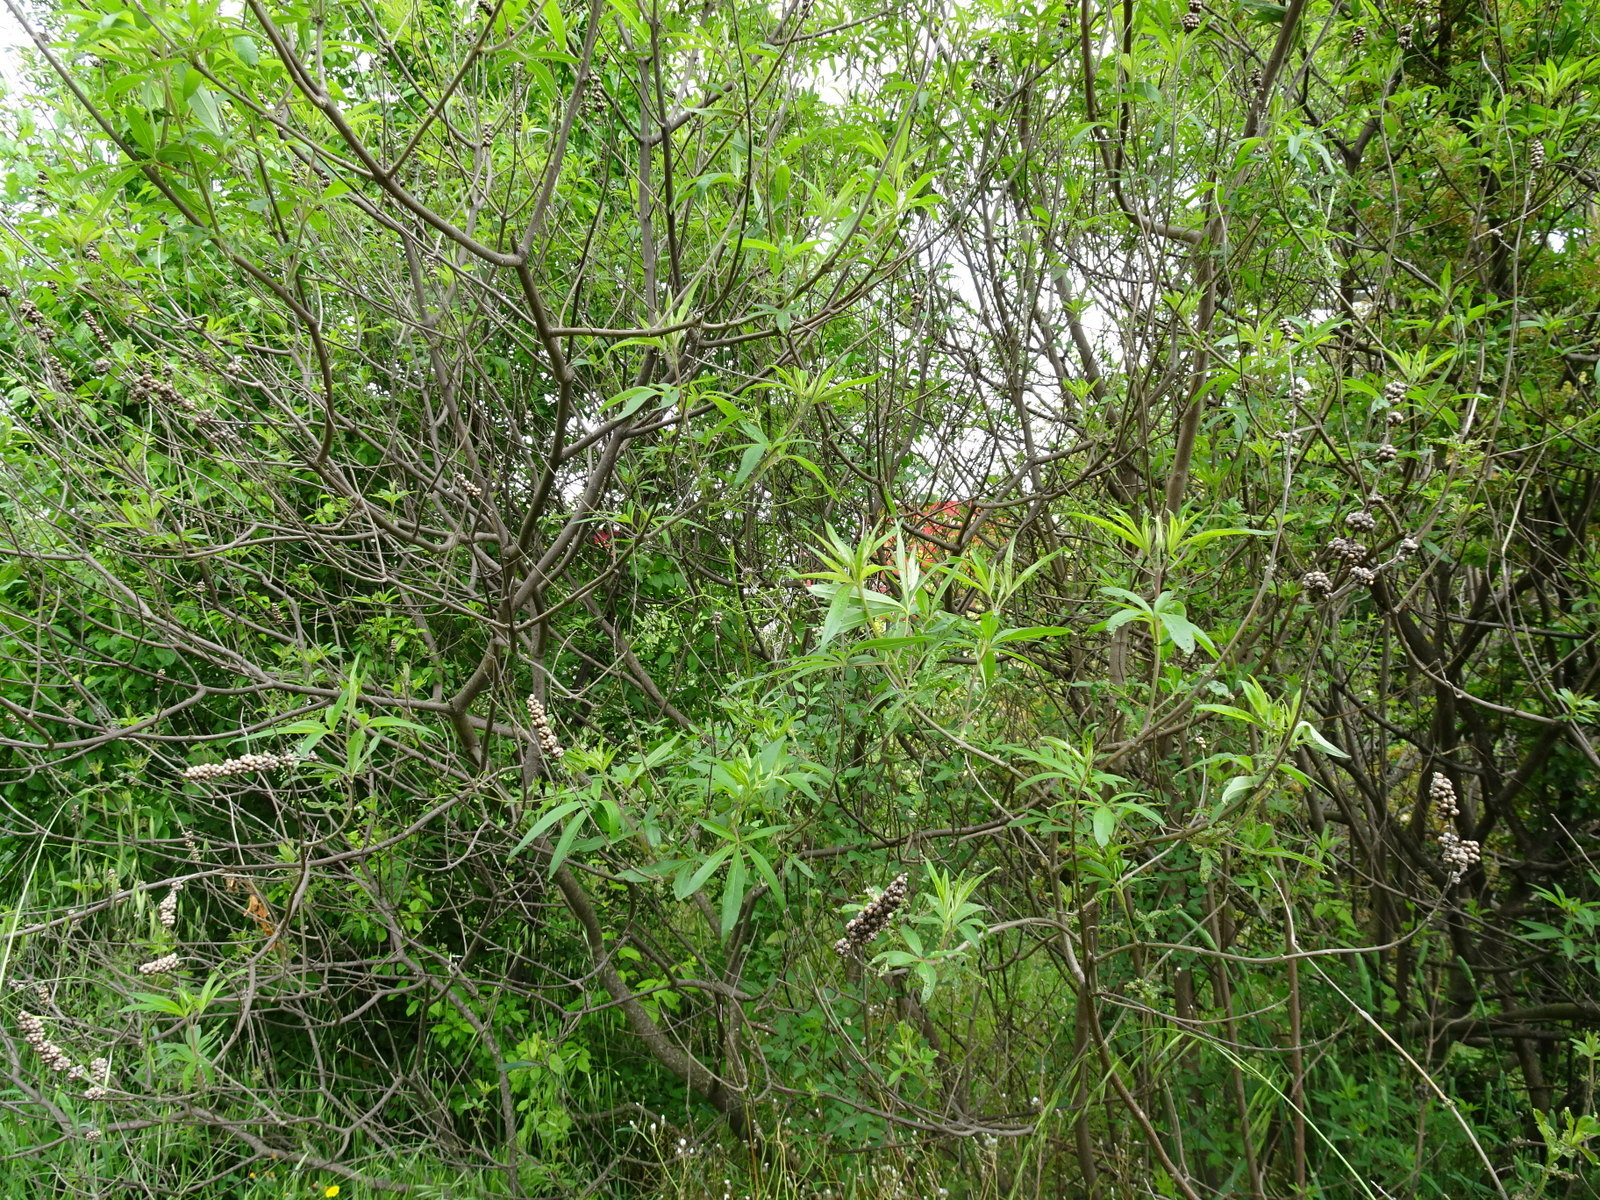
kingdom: Plantae
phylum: Tracheophyta
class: Magnoliopsida
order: Lamiales
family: Lamiaceae
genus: Vitex
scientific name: Vitex agnus-castus
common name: Chasteberry
